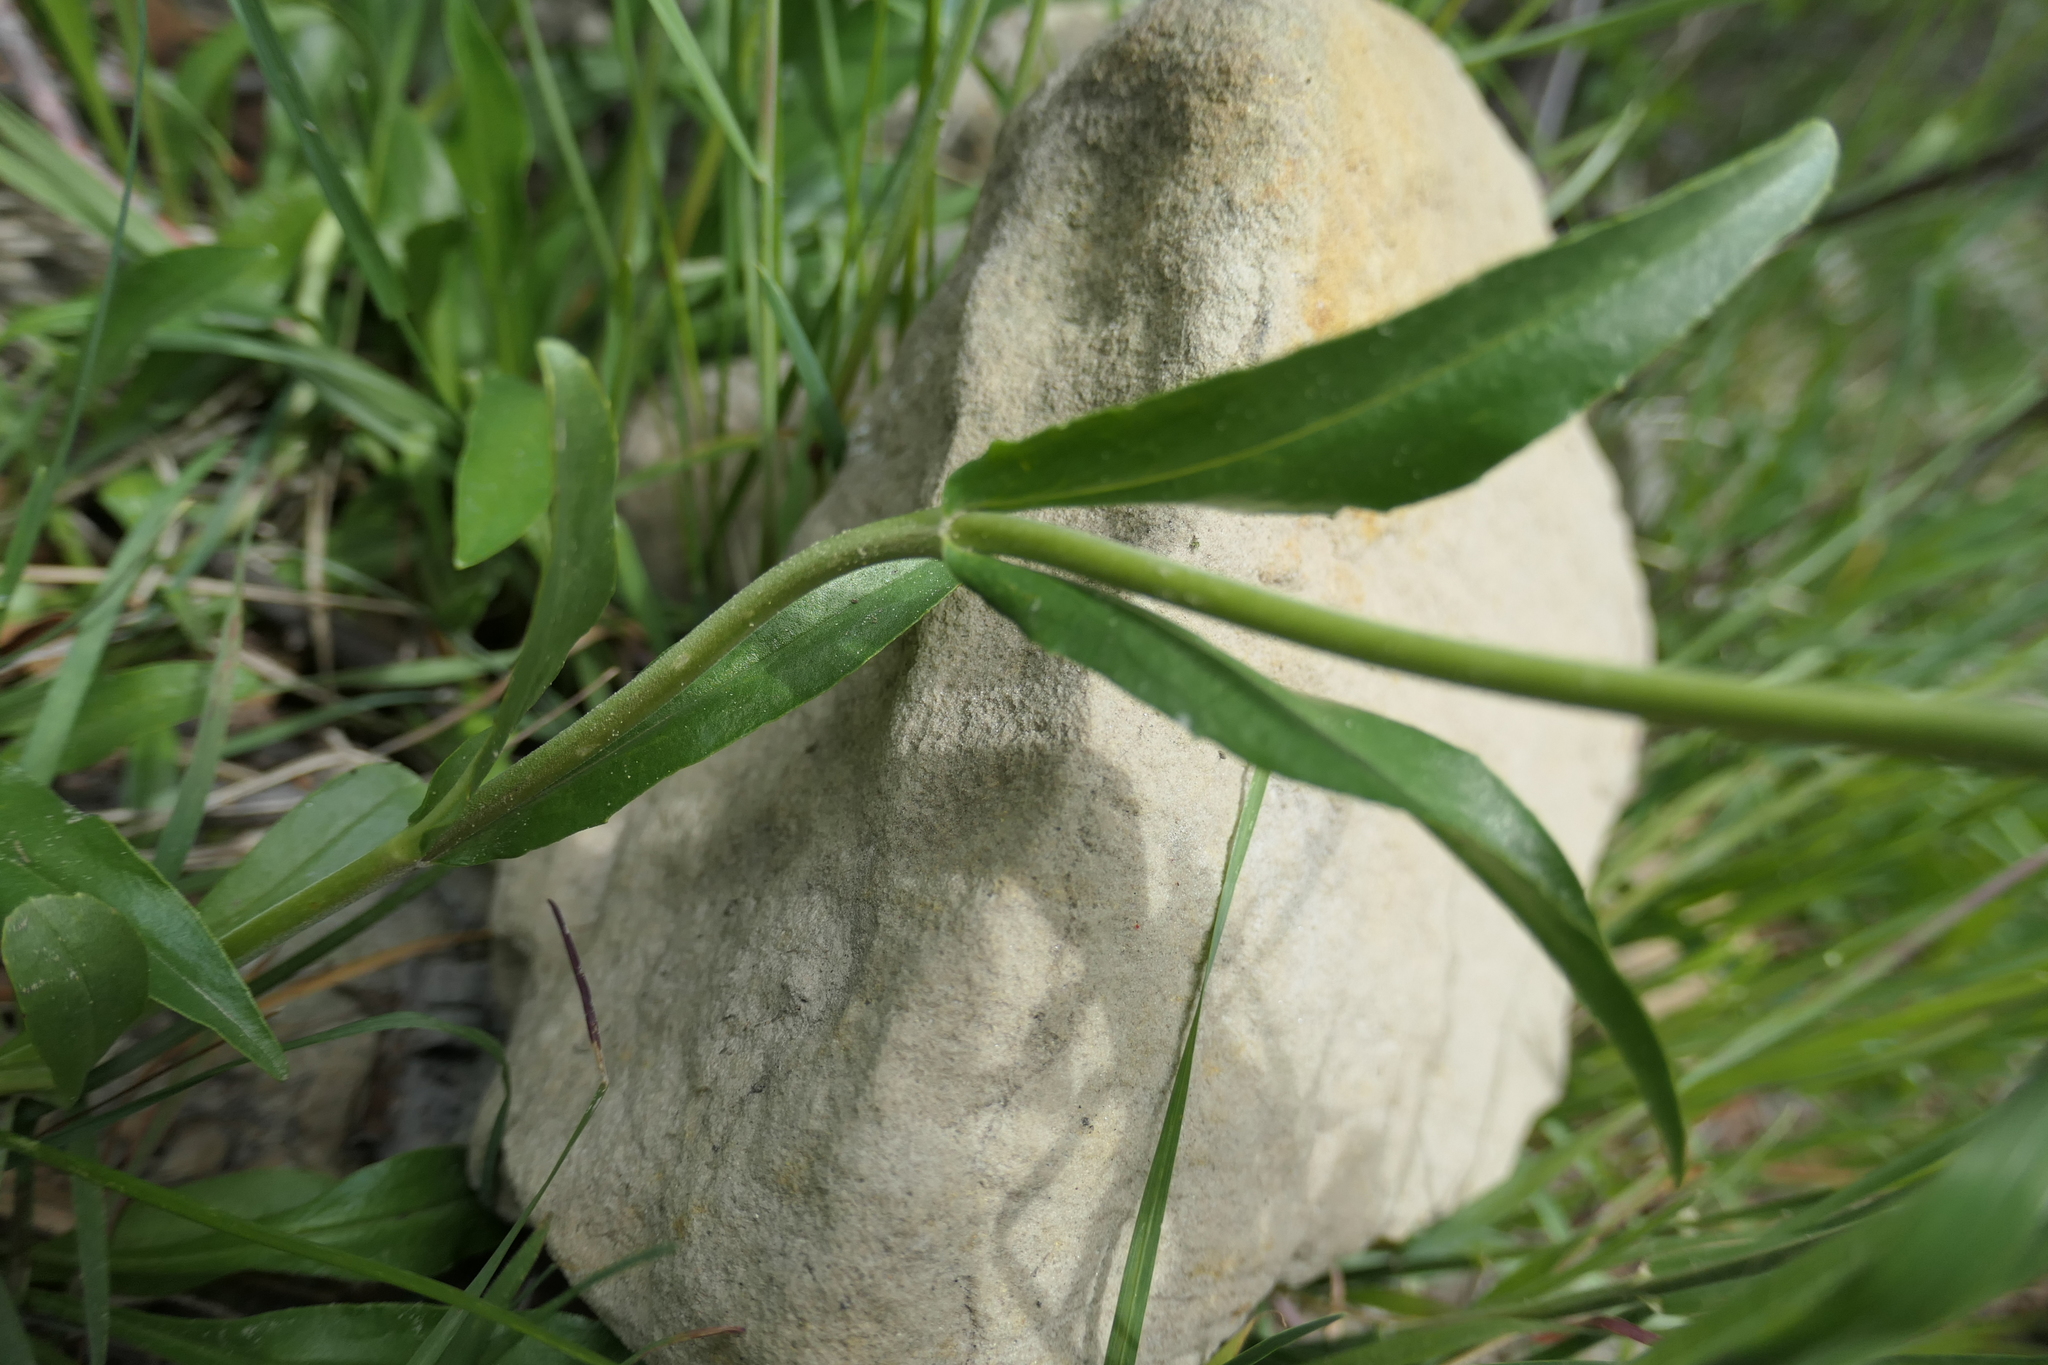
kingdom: Plantae
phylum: Tracheophyta
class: Magnoliopsida
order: Lamiales
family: Plantaginaceae
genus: Penstemon
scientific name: Penstemon virens
